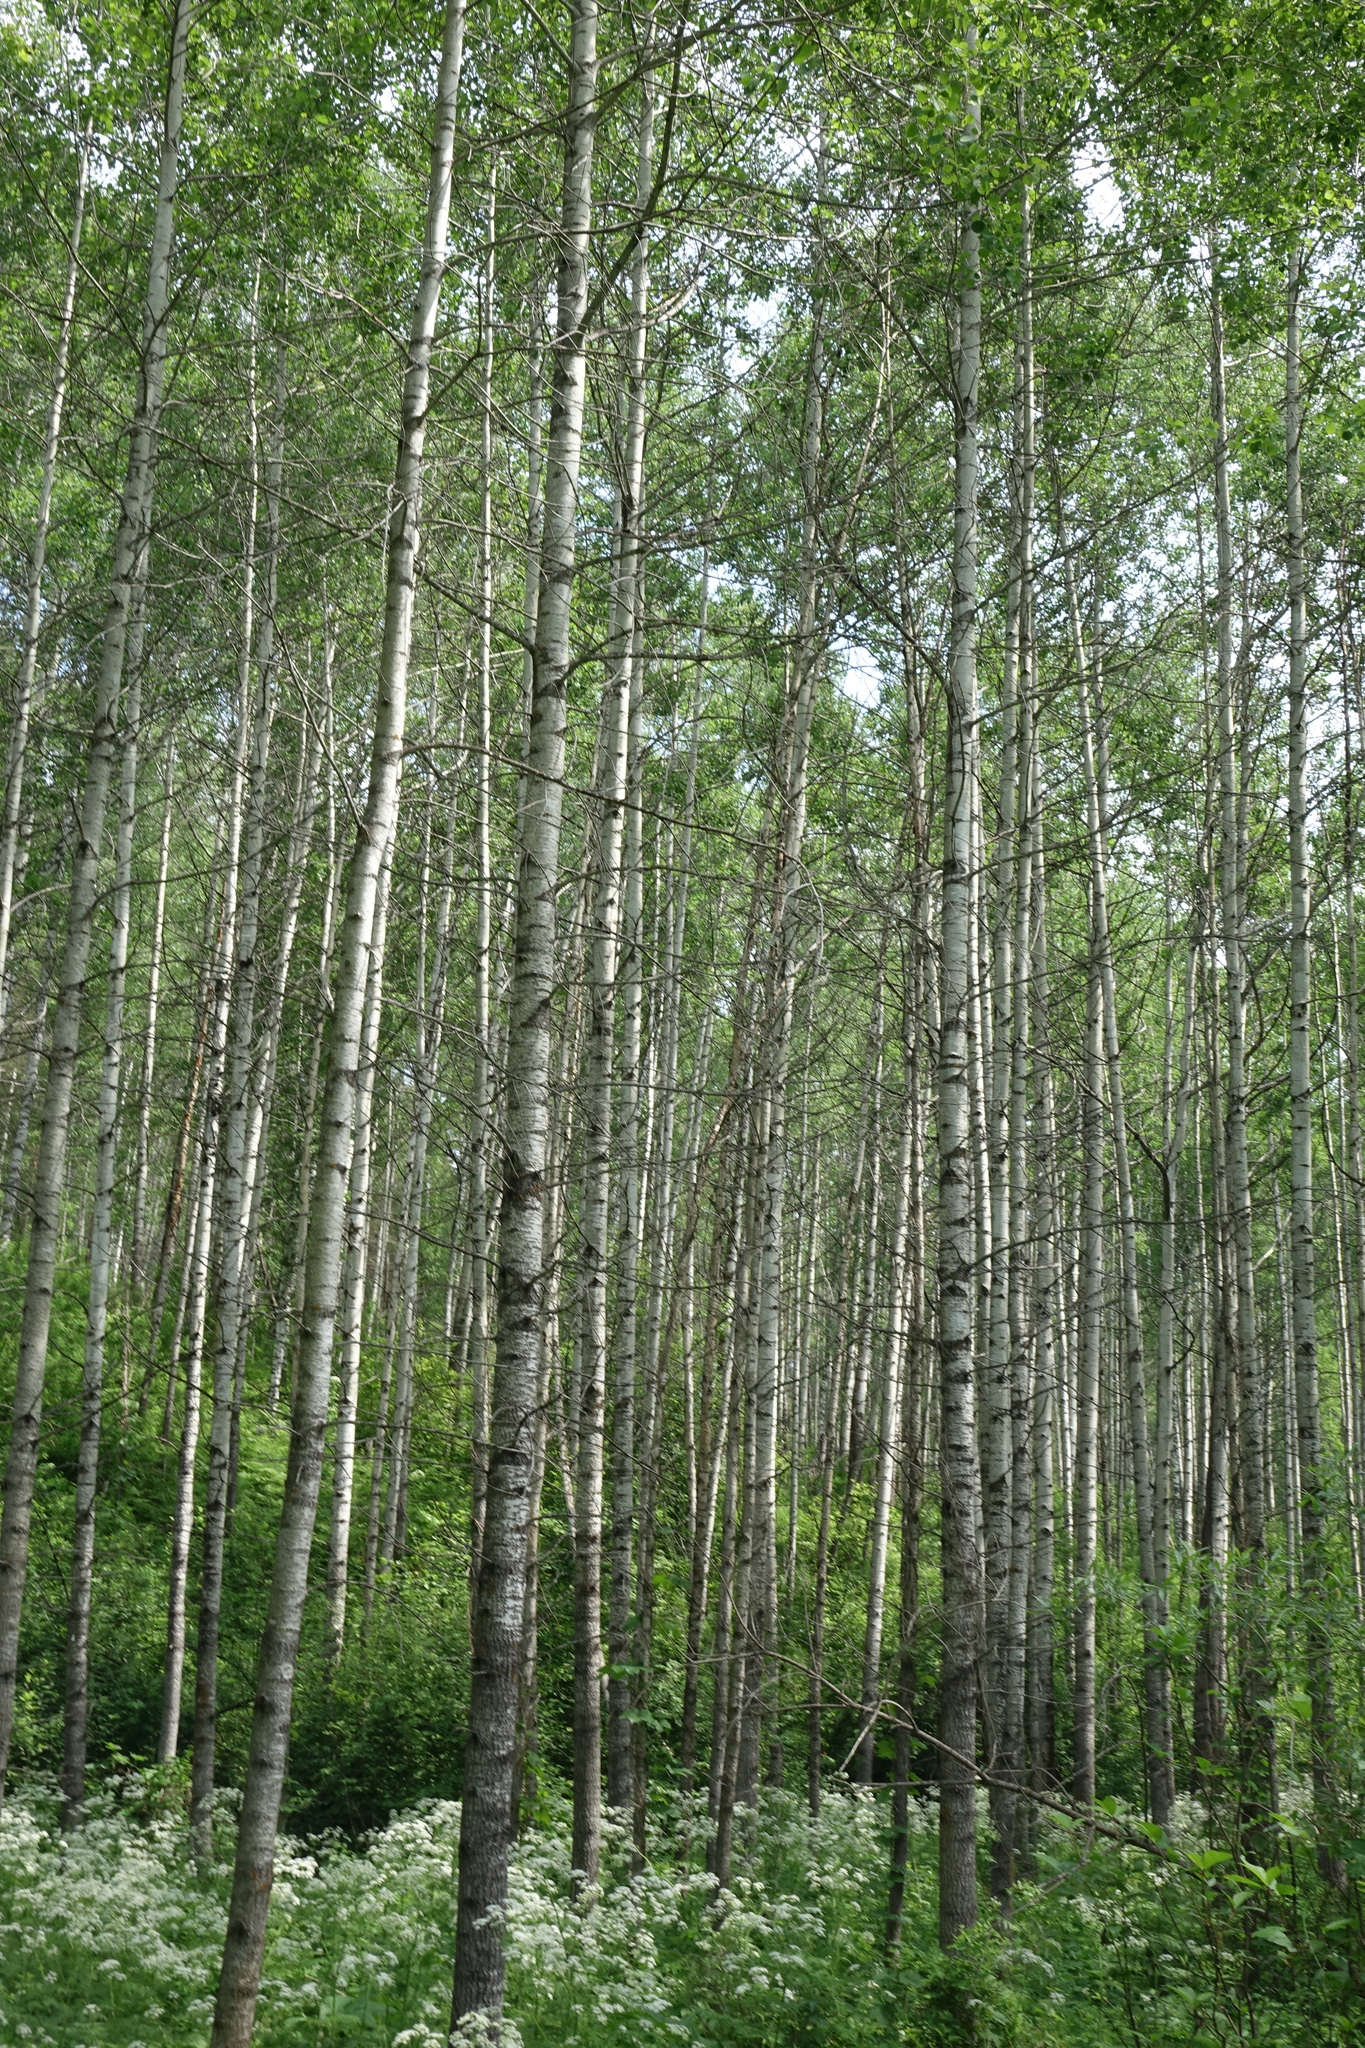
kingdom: Plantae
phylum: Tracheophyta
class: Magnoliopsida
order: Malpighiales
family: Salicaceae
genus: Populus
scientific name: Populus tremula
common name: European aspen
